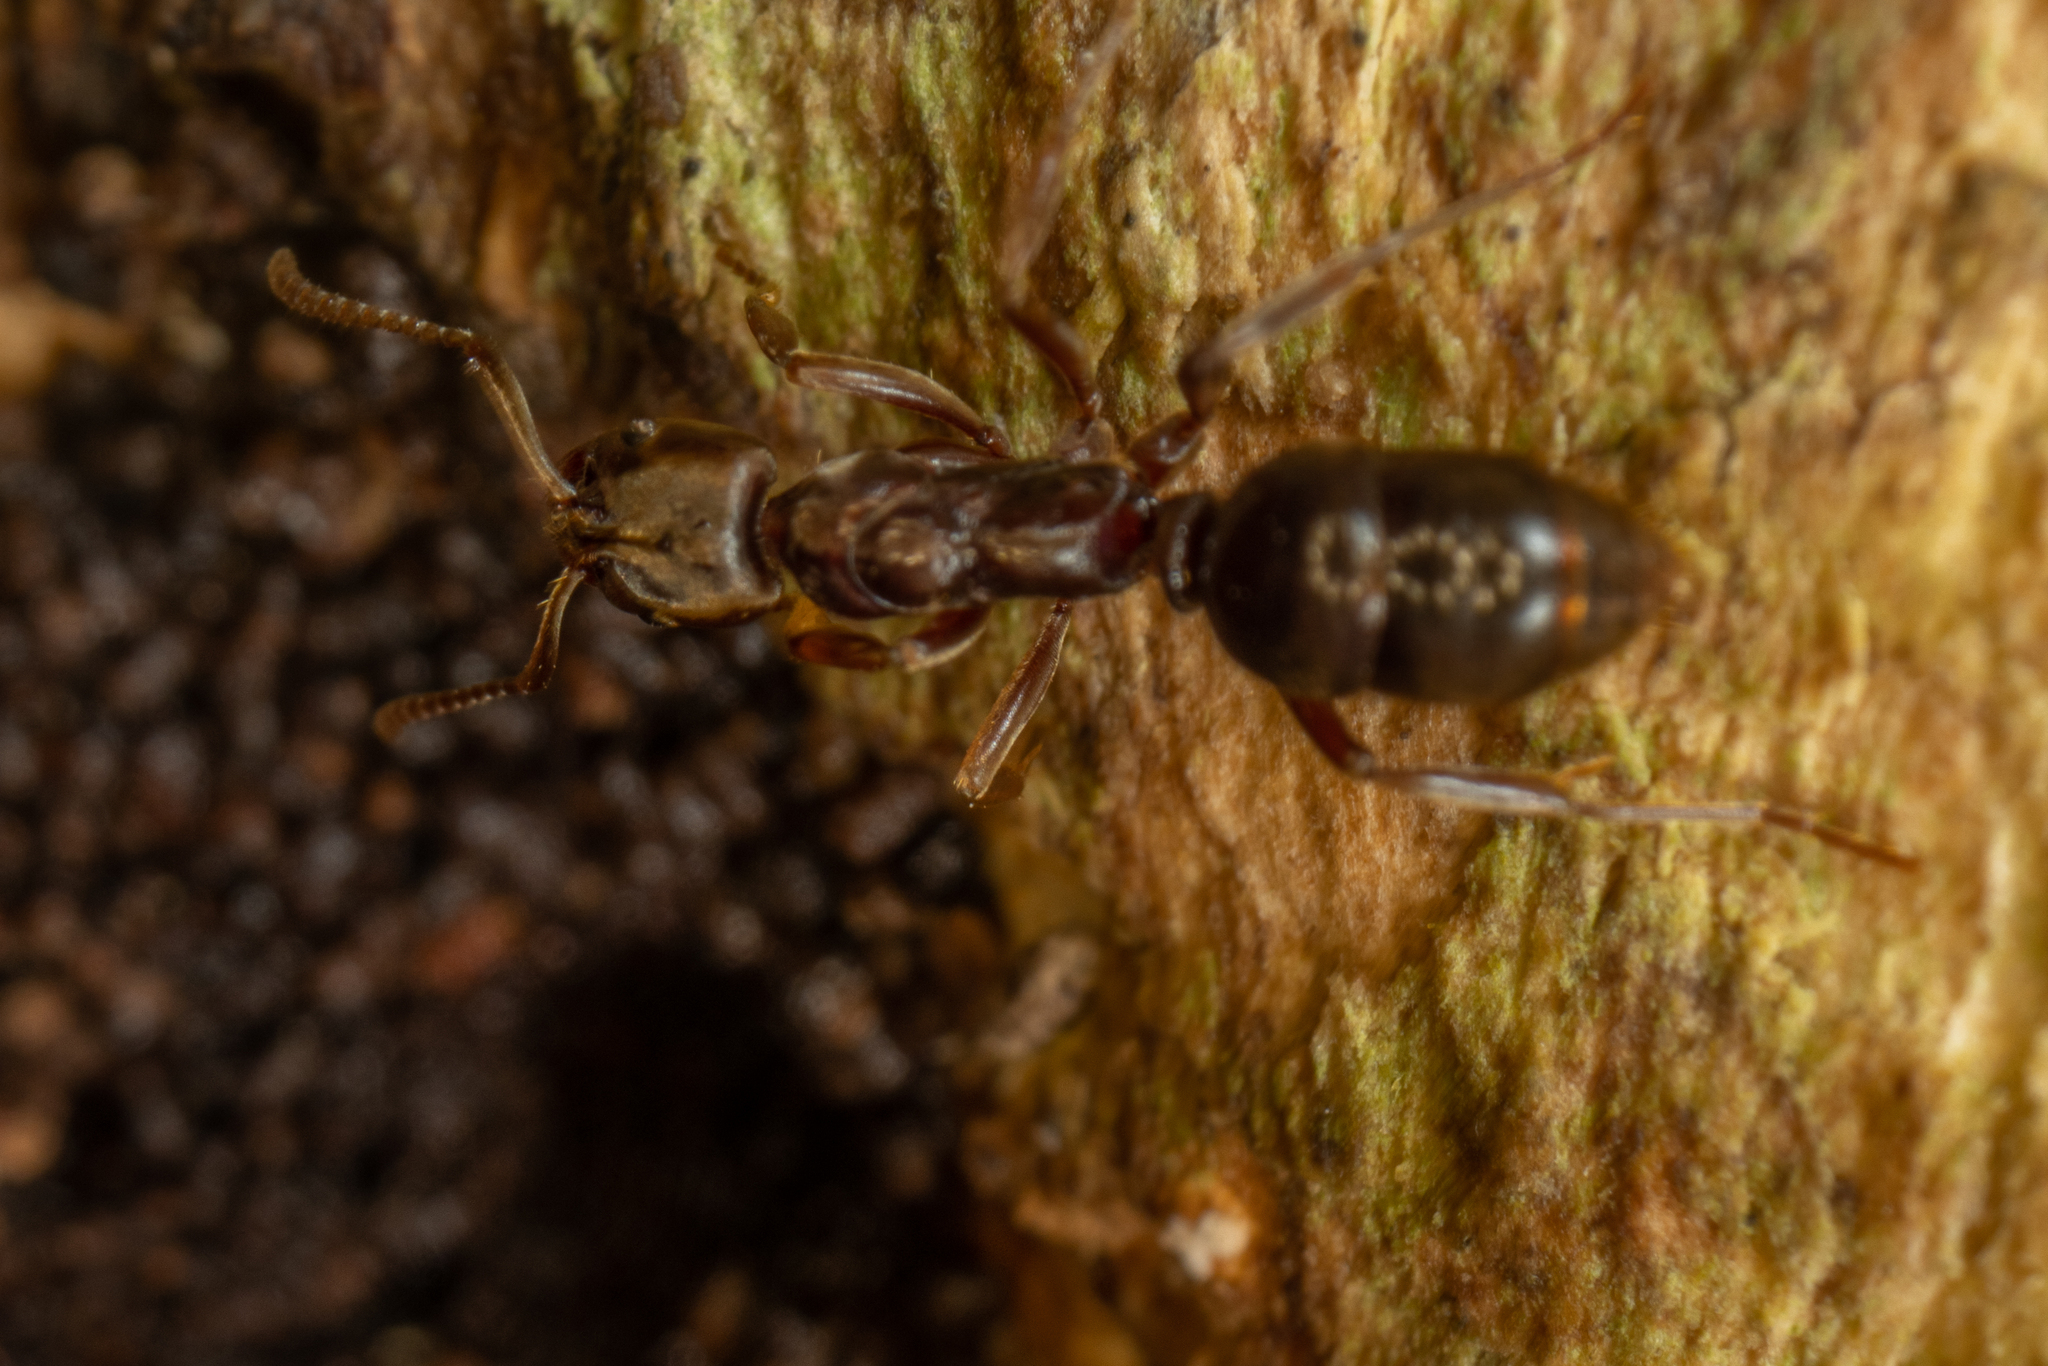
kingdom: Animalia
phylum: Arthropoda
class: Insecta
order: Hymenoptera
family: Formicidae
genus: Austroponera
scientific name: Austroponera
